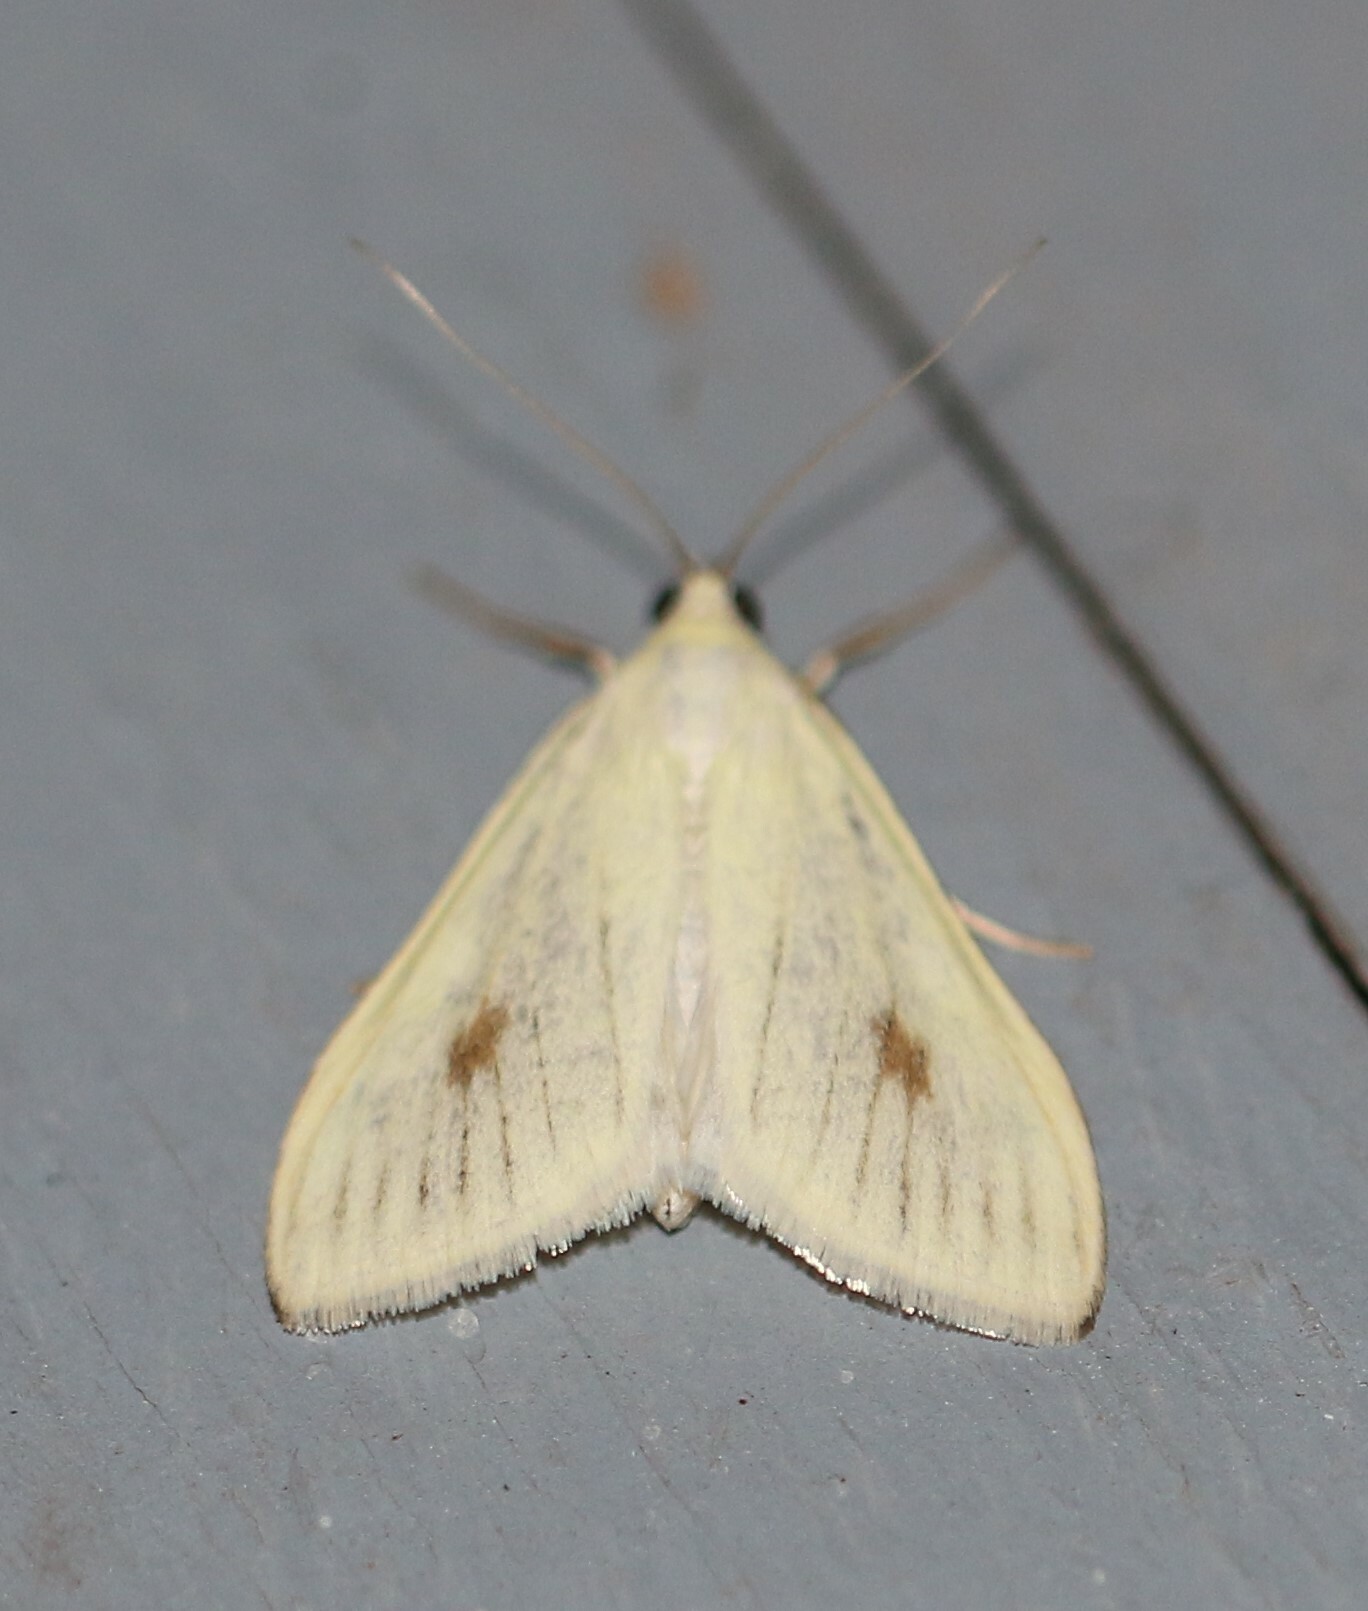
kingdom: Animalia
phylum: Arthropoda
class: Insecta
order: Lepidoptera
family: Crambidae
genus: Sitochroa
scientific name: Sitochroa palealis
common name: Greenish-yellow sitochroa moth
